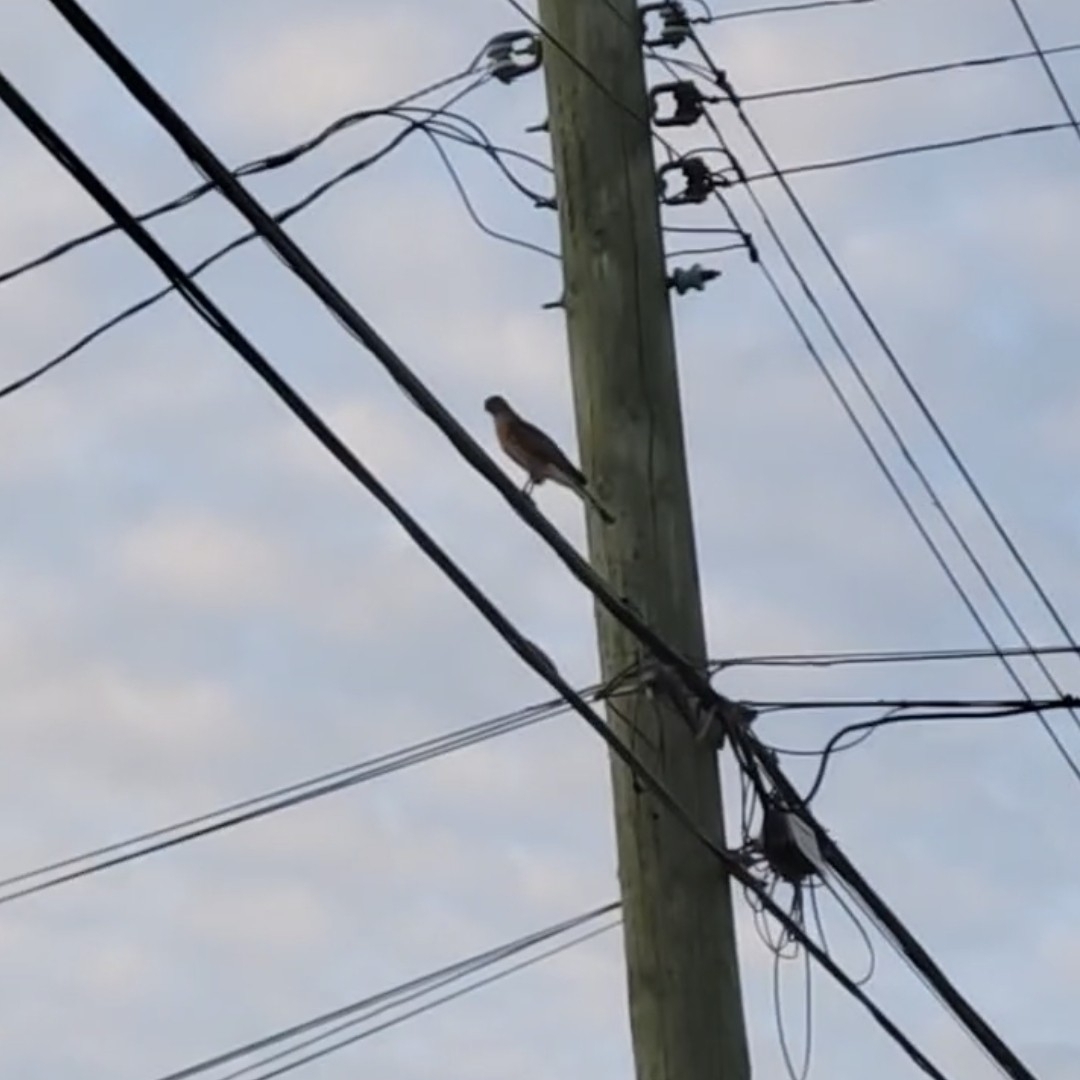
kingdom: Animalia
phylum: Chordata
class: Aves
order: Accipitriformes
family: Accipitridae
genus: Accipiter
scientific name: Accipiter cooperii
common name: Cooper's hawk
